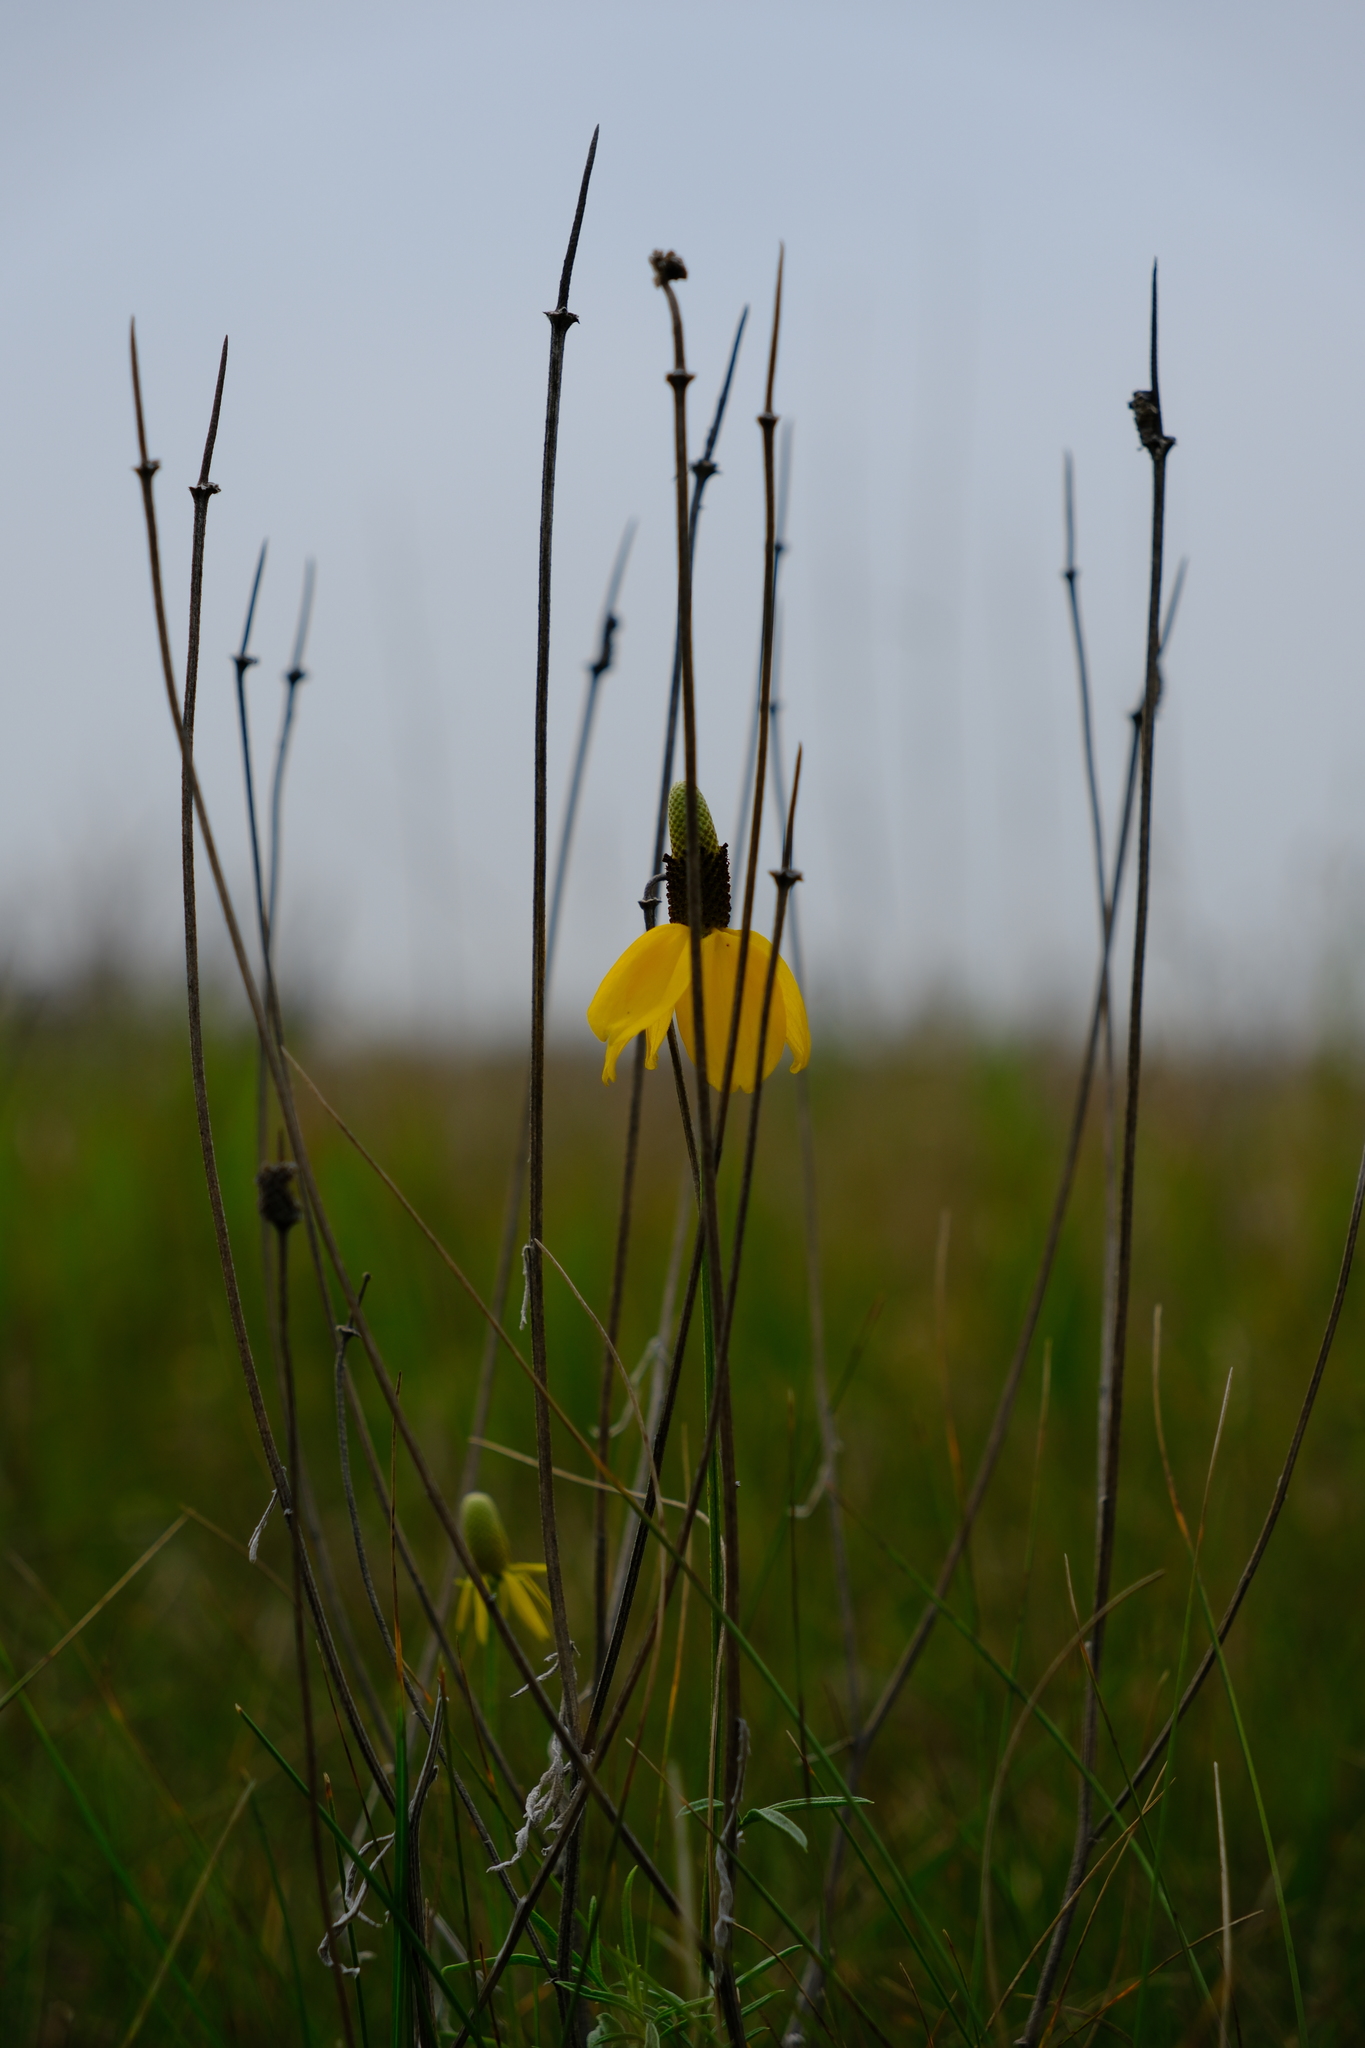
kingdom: Plantae
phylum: Tracheophyta
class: Magnoliopsida
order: Asterales
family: Asteraceae
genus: Ratibida
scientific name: Ratibida columnifera
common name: Prairie coneflower
